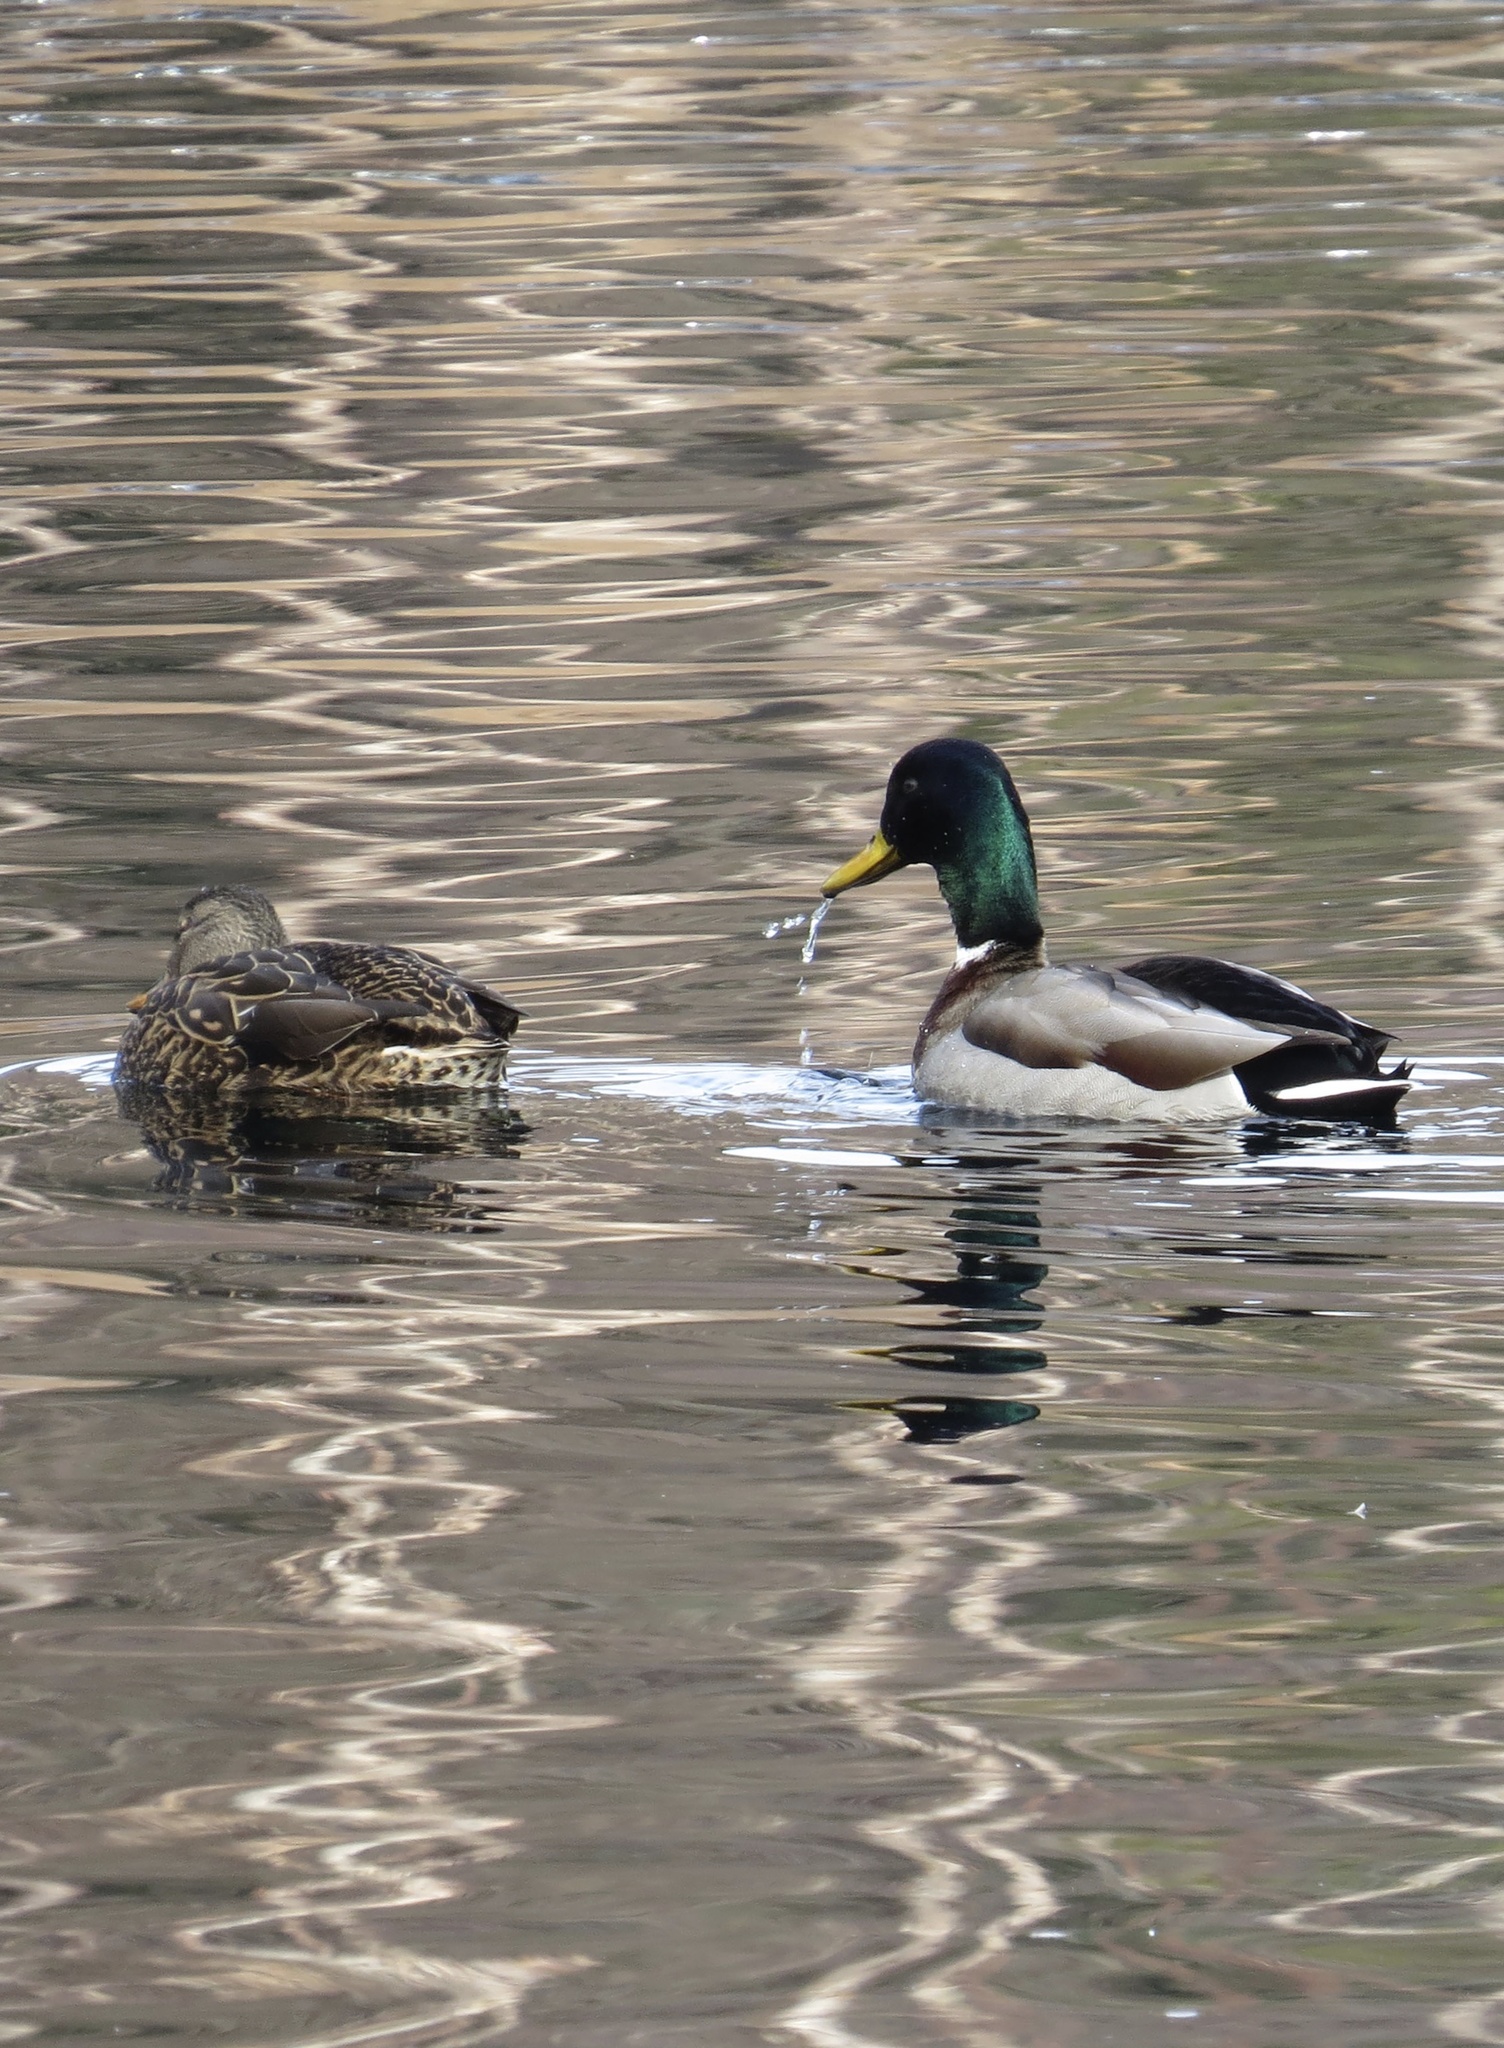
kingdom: Animalia
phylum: Chordata
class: Aves
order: Anseriformes
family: Anatidae
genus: Anas
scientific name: Anas platyrhynchos
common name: Mallard
